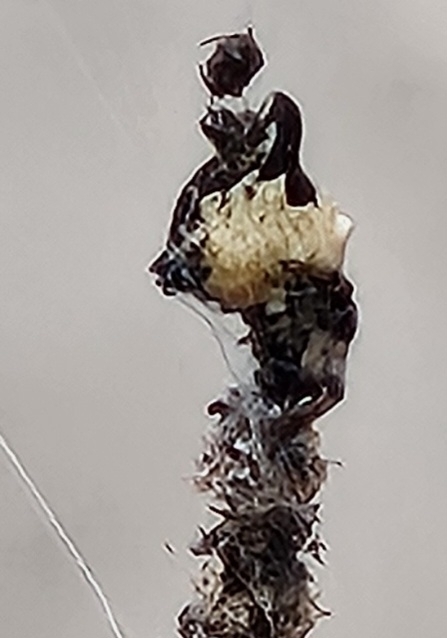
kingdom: Animalia
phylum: Arthropoda
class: Arachnida
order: Araneae
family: Araneidae
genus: Cyclosa
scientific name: Cyclosa turbinata
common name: Orb weavers
